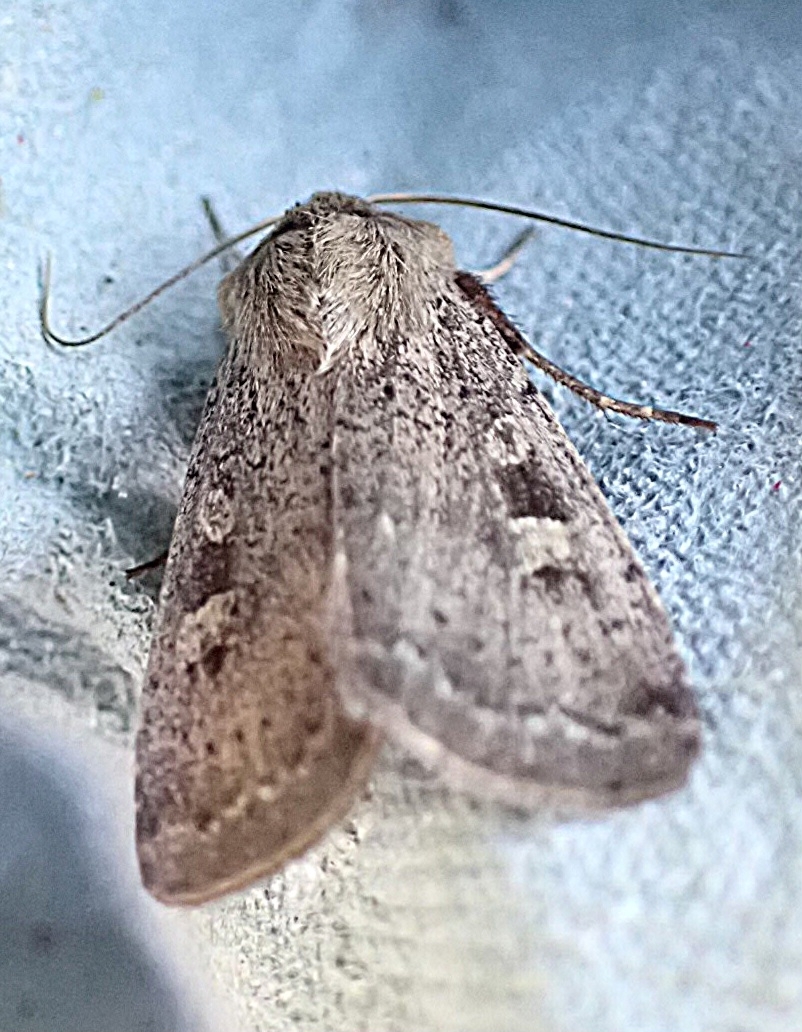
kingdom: Animalia
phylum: Arthropoda
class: Insecta
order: Lepidoptera
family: Noctuidae
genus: Xestia
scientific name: Xestia xanthographa
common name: Square-spot rustic
